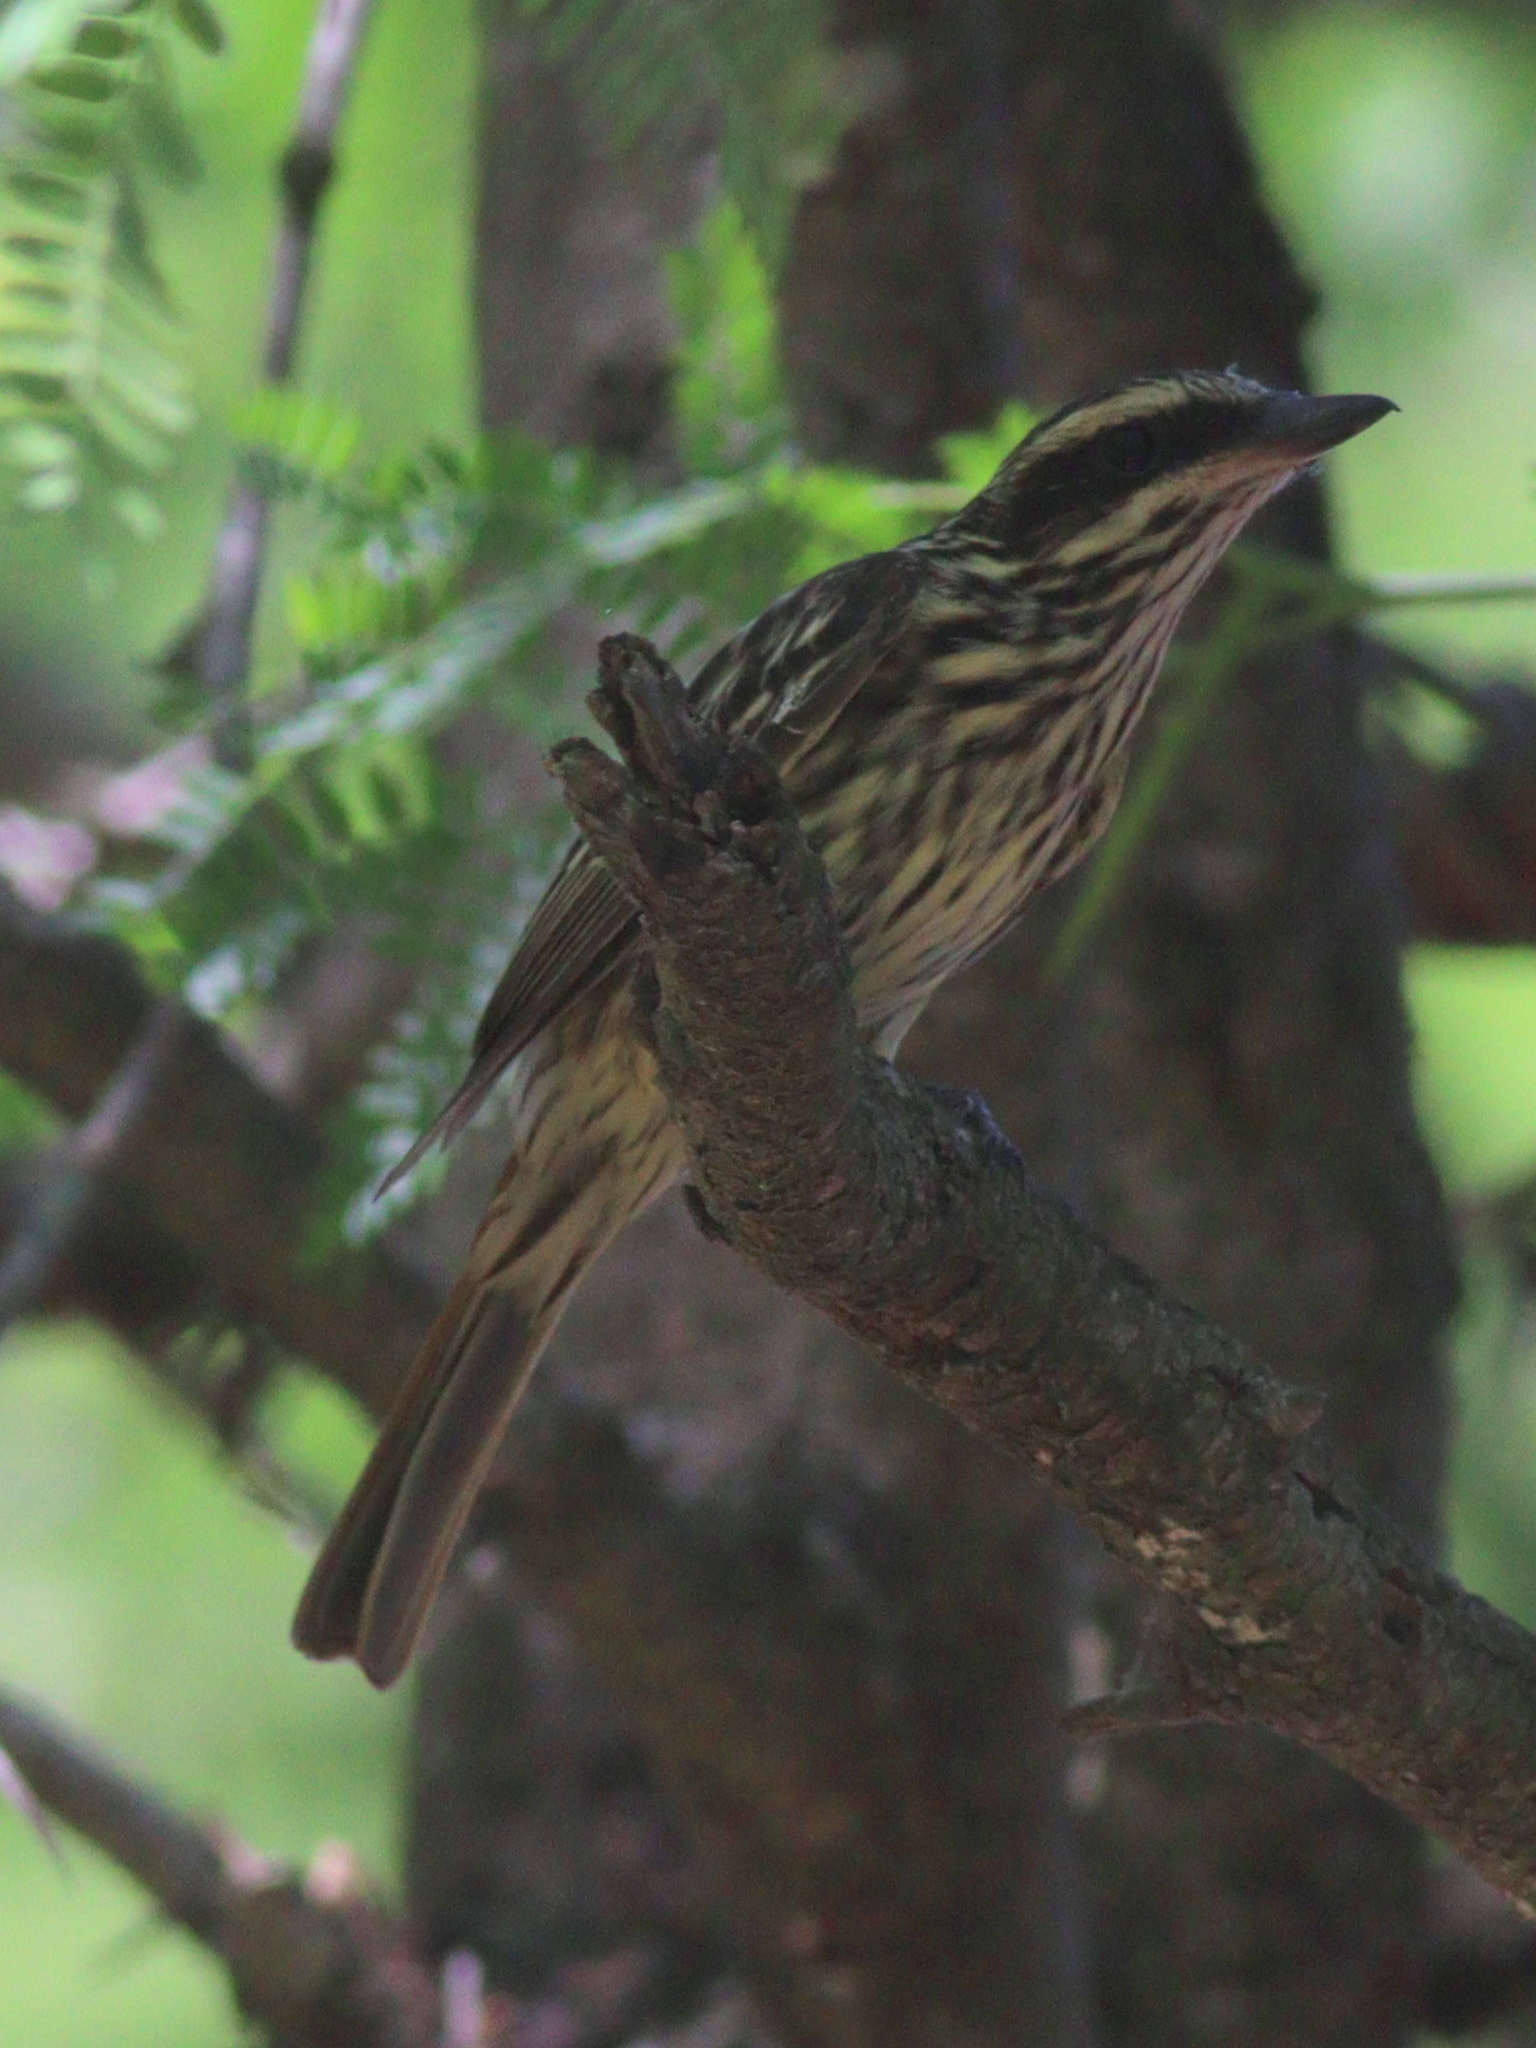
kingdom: Animalia
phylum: Chordata
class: Aves
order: Passeriformes
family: Tyrannidae
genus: Myiodynastes
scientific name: Myiodynastes maculatus
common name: Streaked flycatcher
